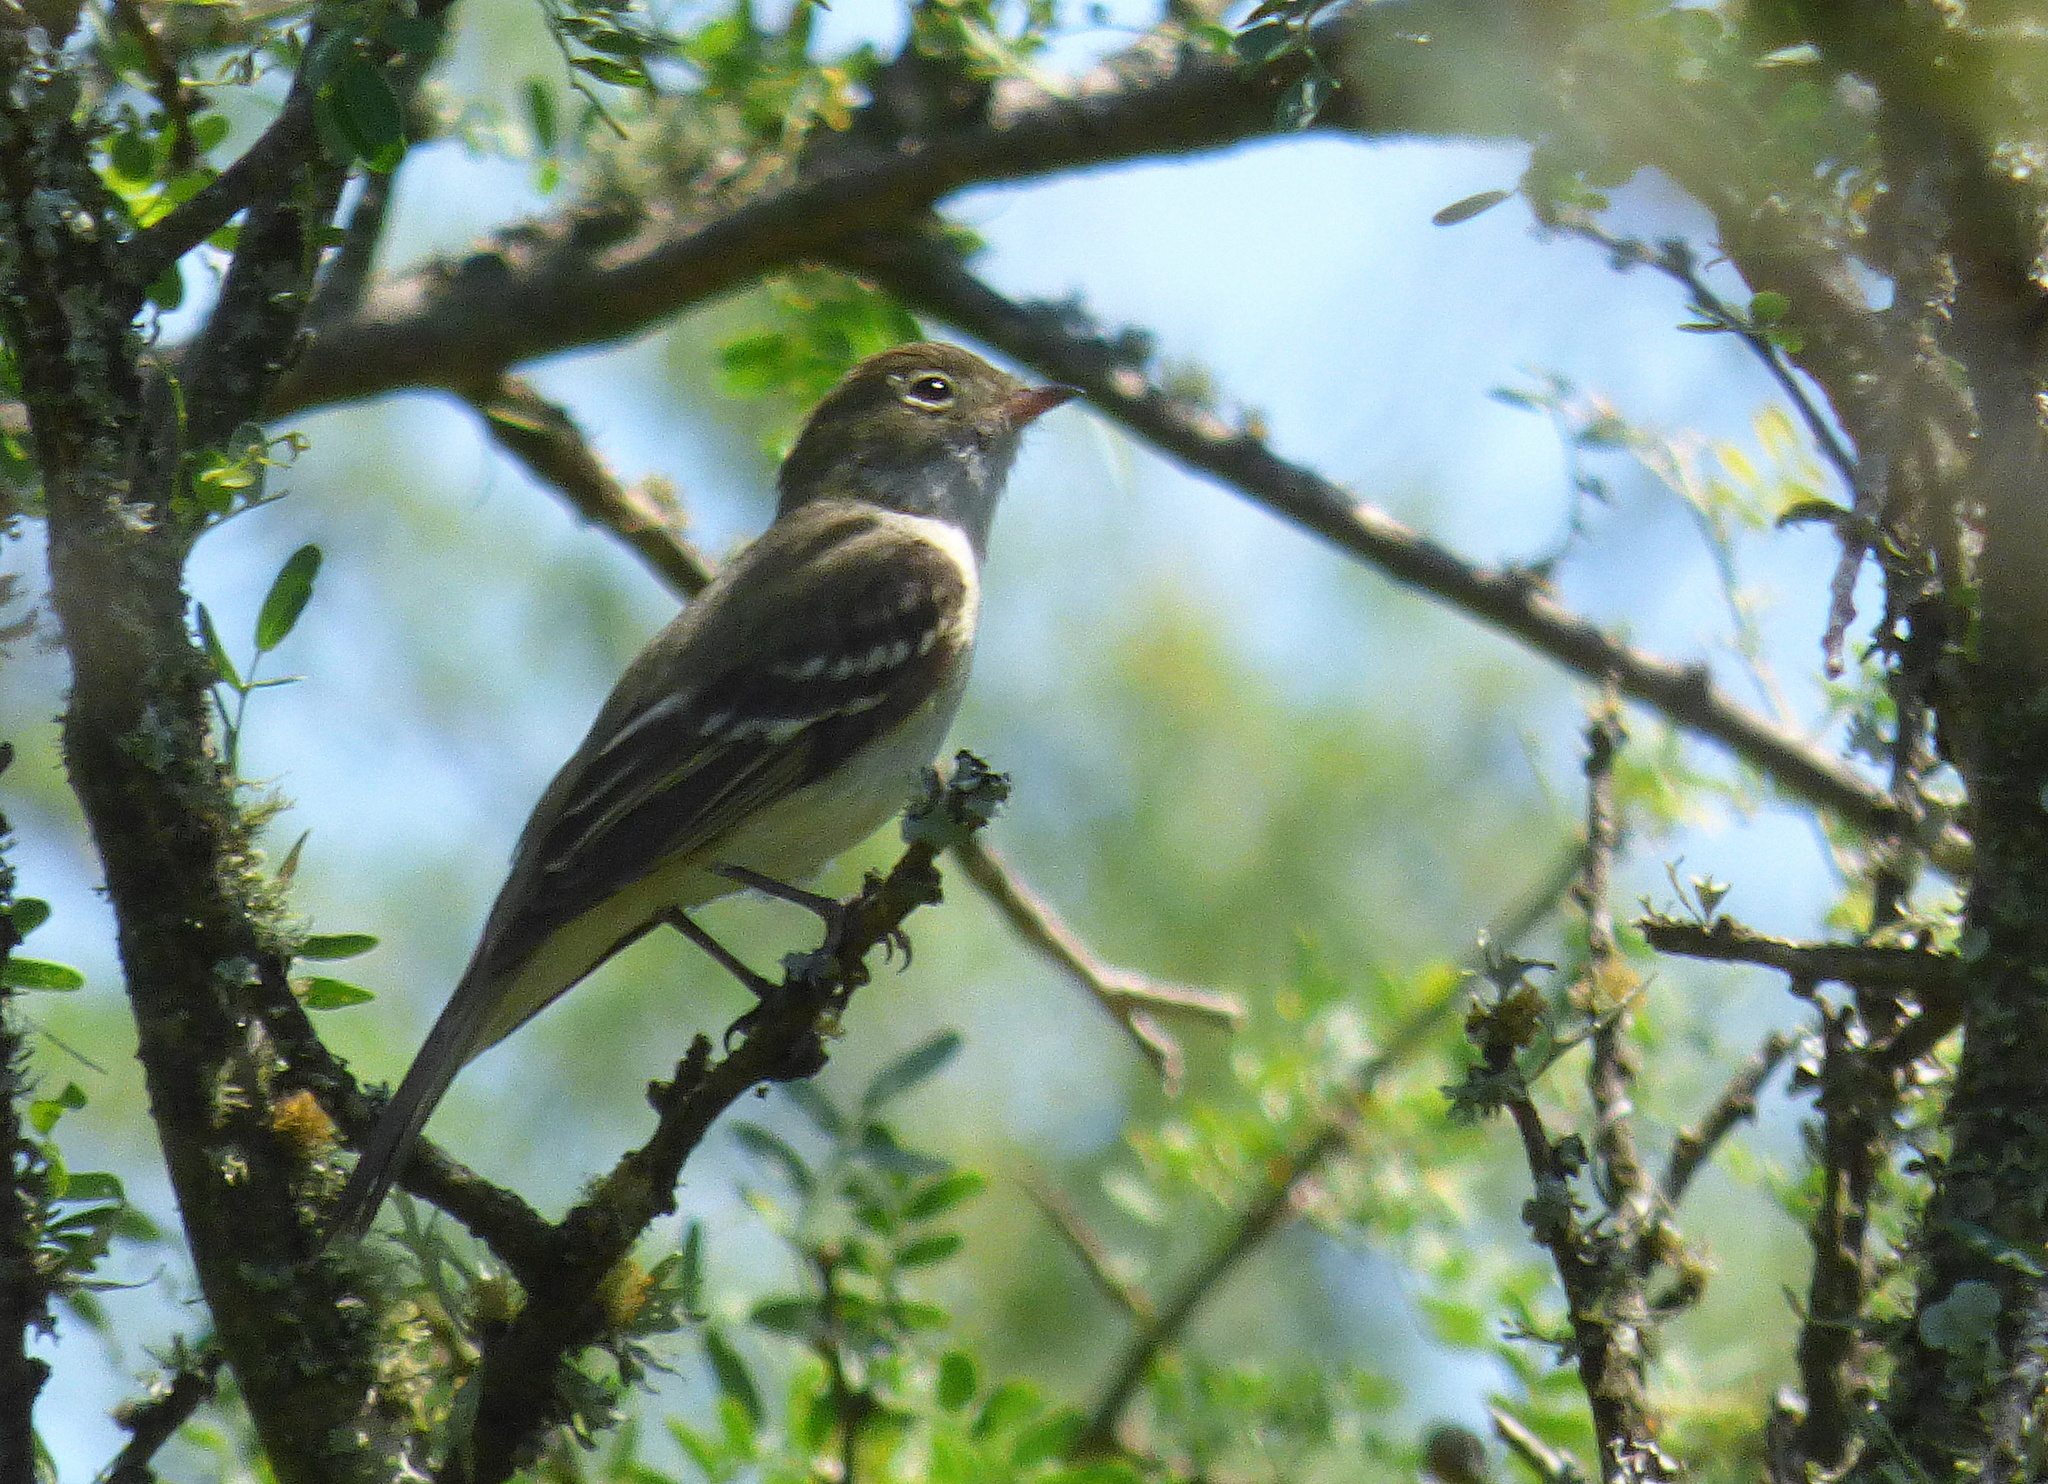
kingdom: Animalia
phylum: Chordata
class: Aves
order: Passeriformes
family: Tyrannidae
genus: Elaenia
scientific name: Elaenia parvirostris
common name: Small-billed elaenia
